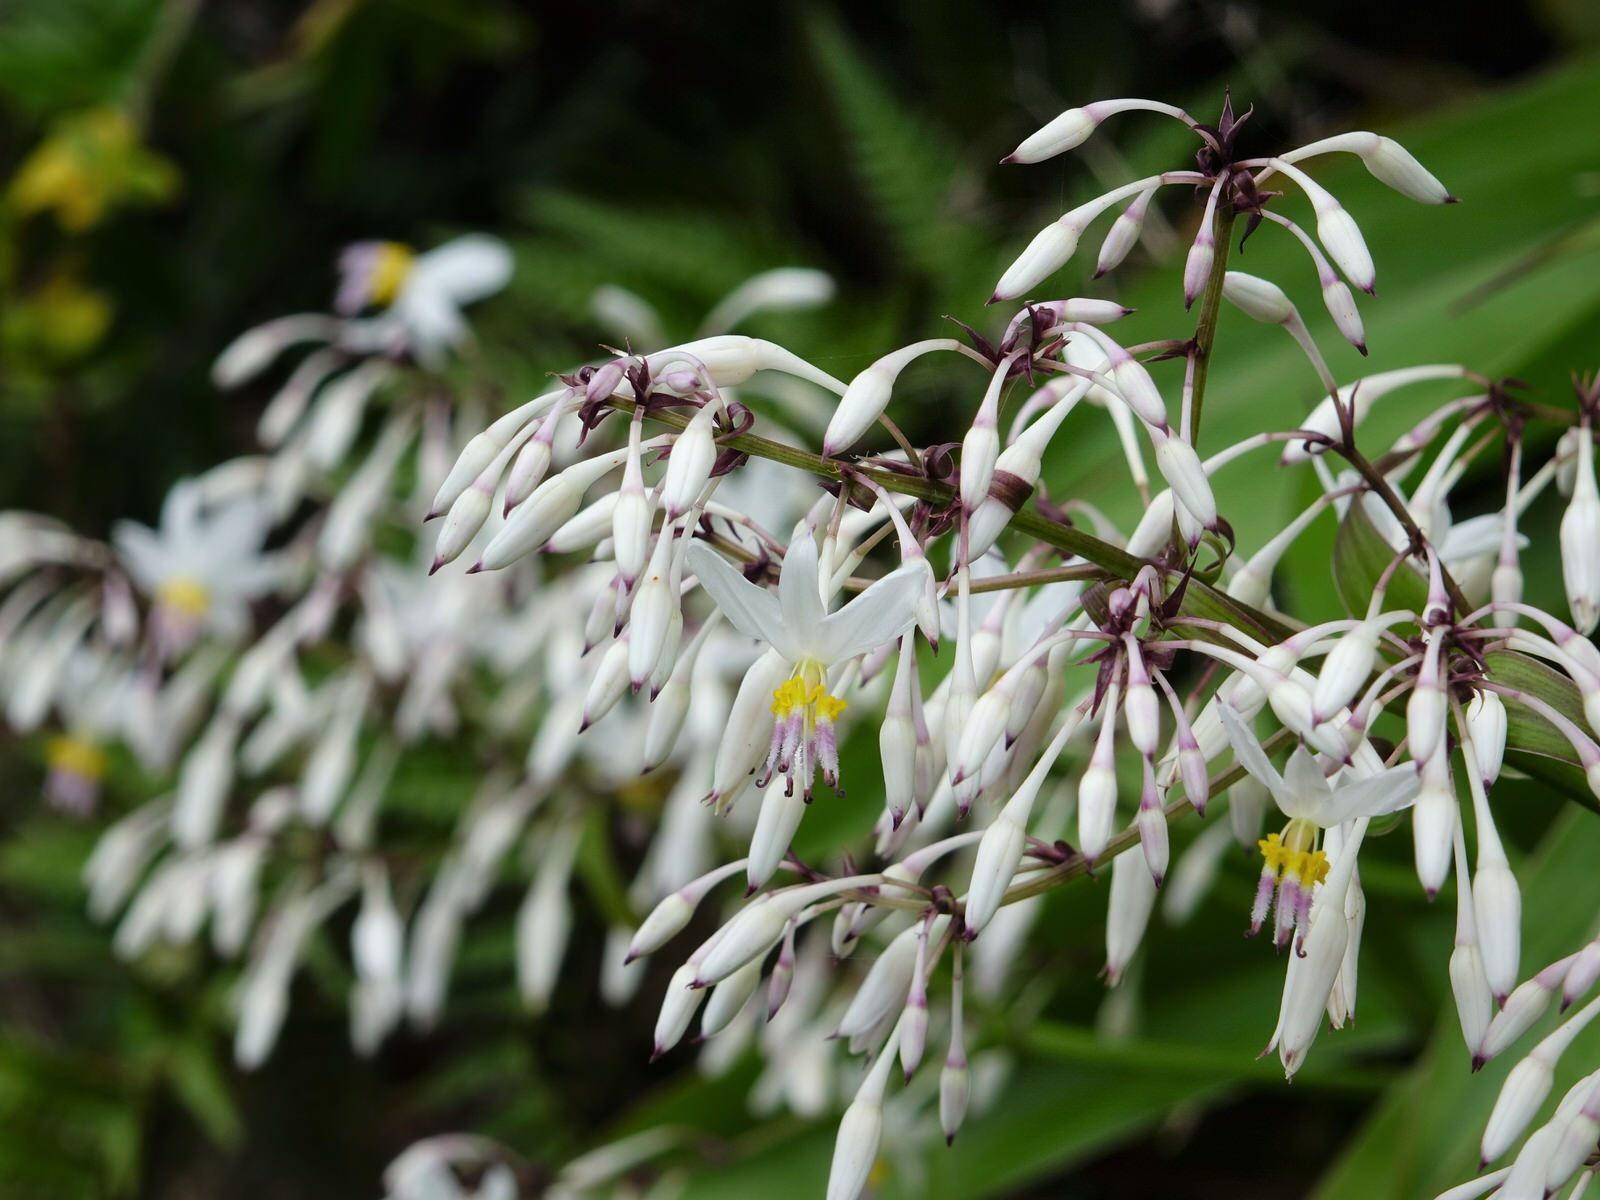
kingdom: Plantae
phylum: Tracheophyta
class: Liliopsida
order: Asparagales
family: Asparagaceae
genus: Arthropodium
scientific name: Arthropodium cirratum
